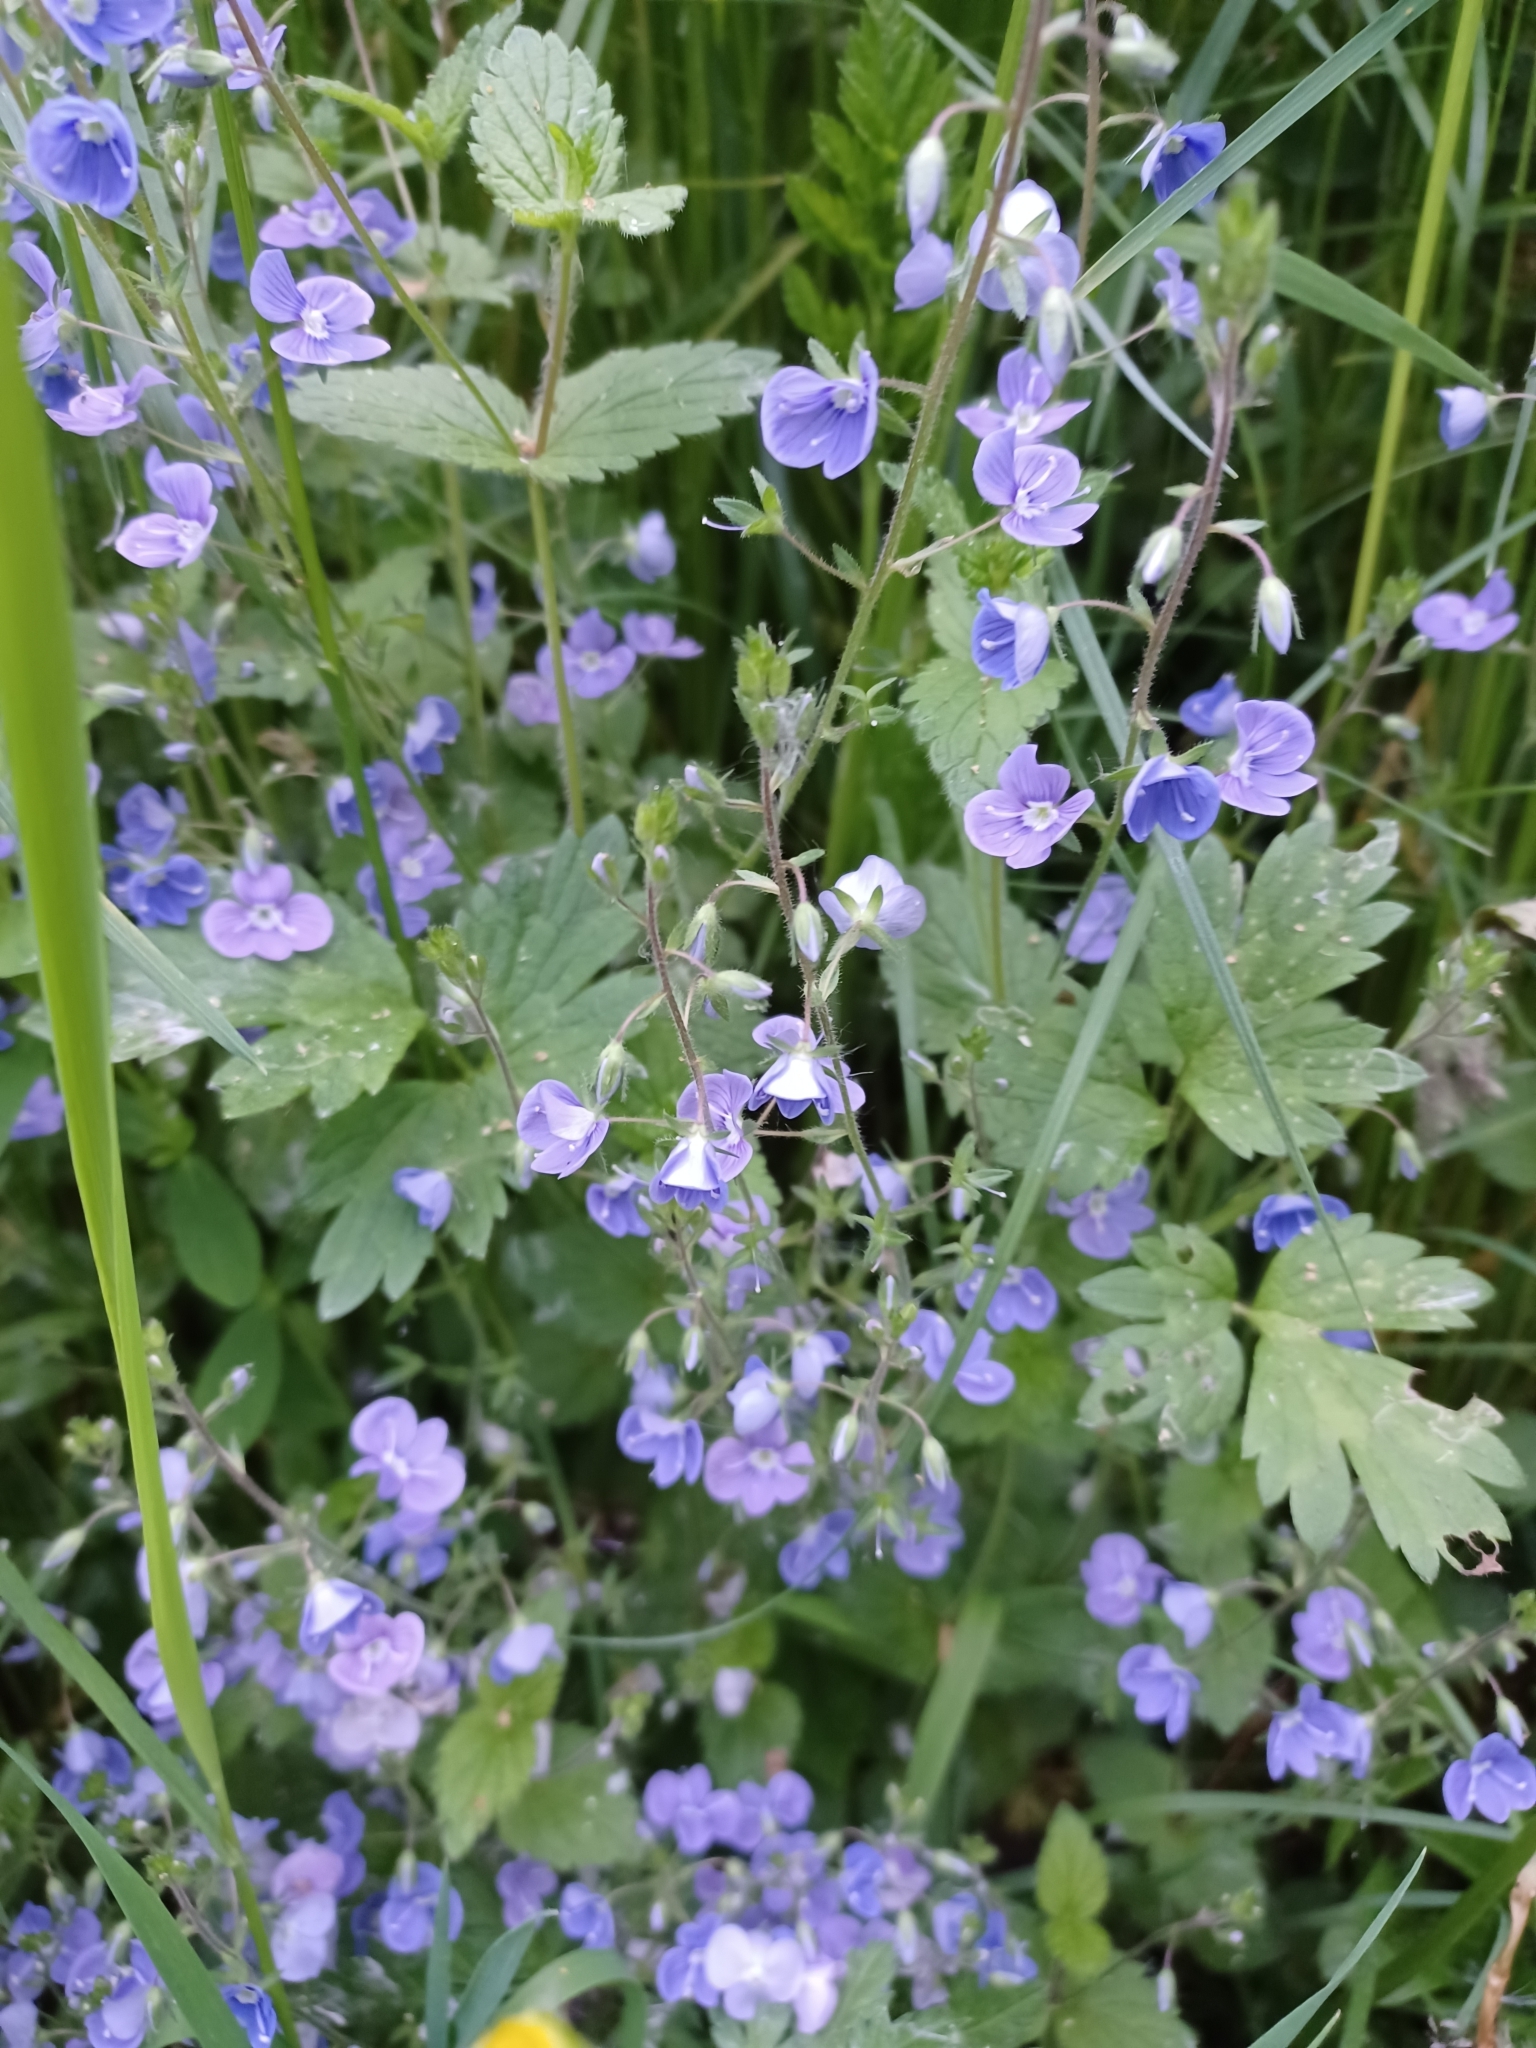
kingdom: Plantae
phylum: Tracheophyta
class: Magnoliopsida
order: Lamiales
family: Plantaginaceae
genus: Veronica
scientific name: Veronica chamaedrys
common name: Germander speedwell
